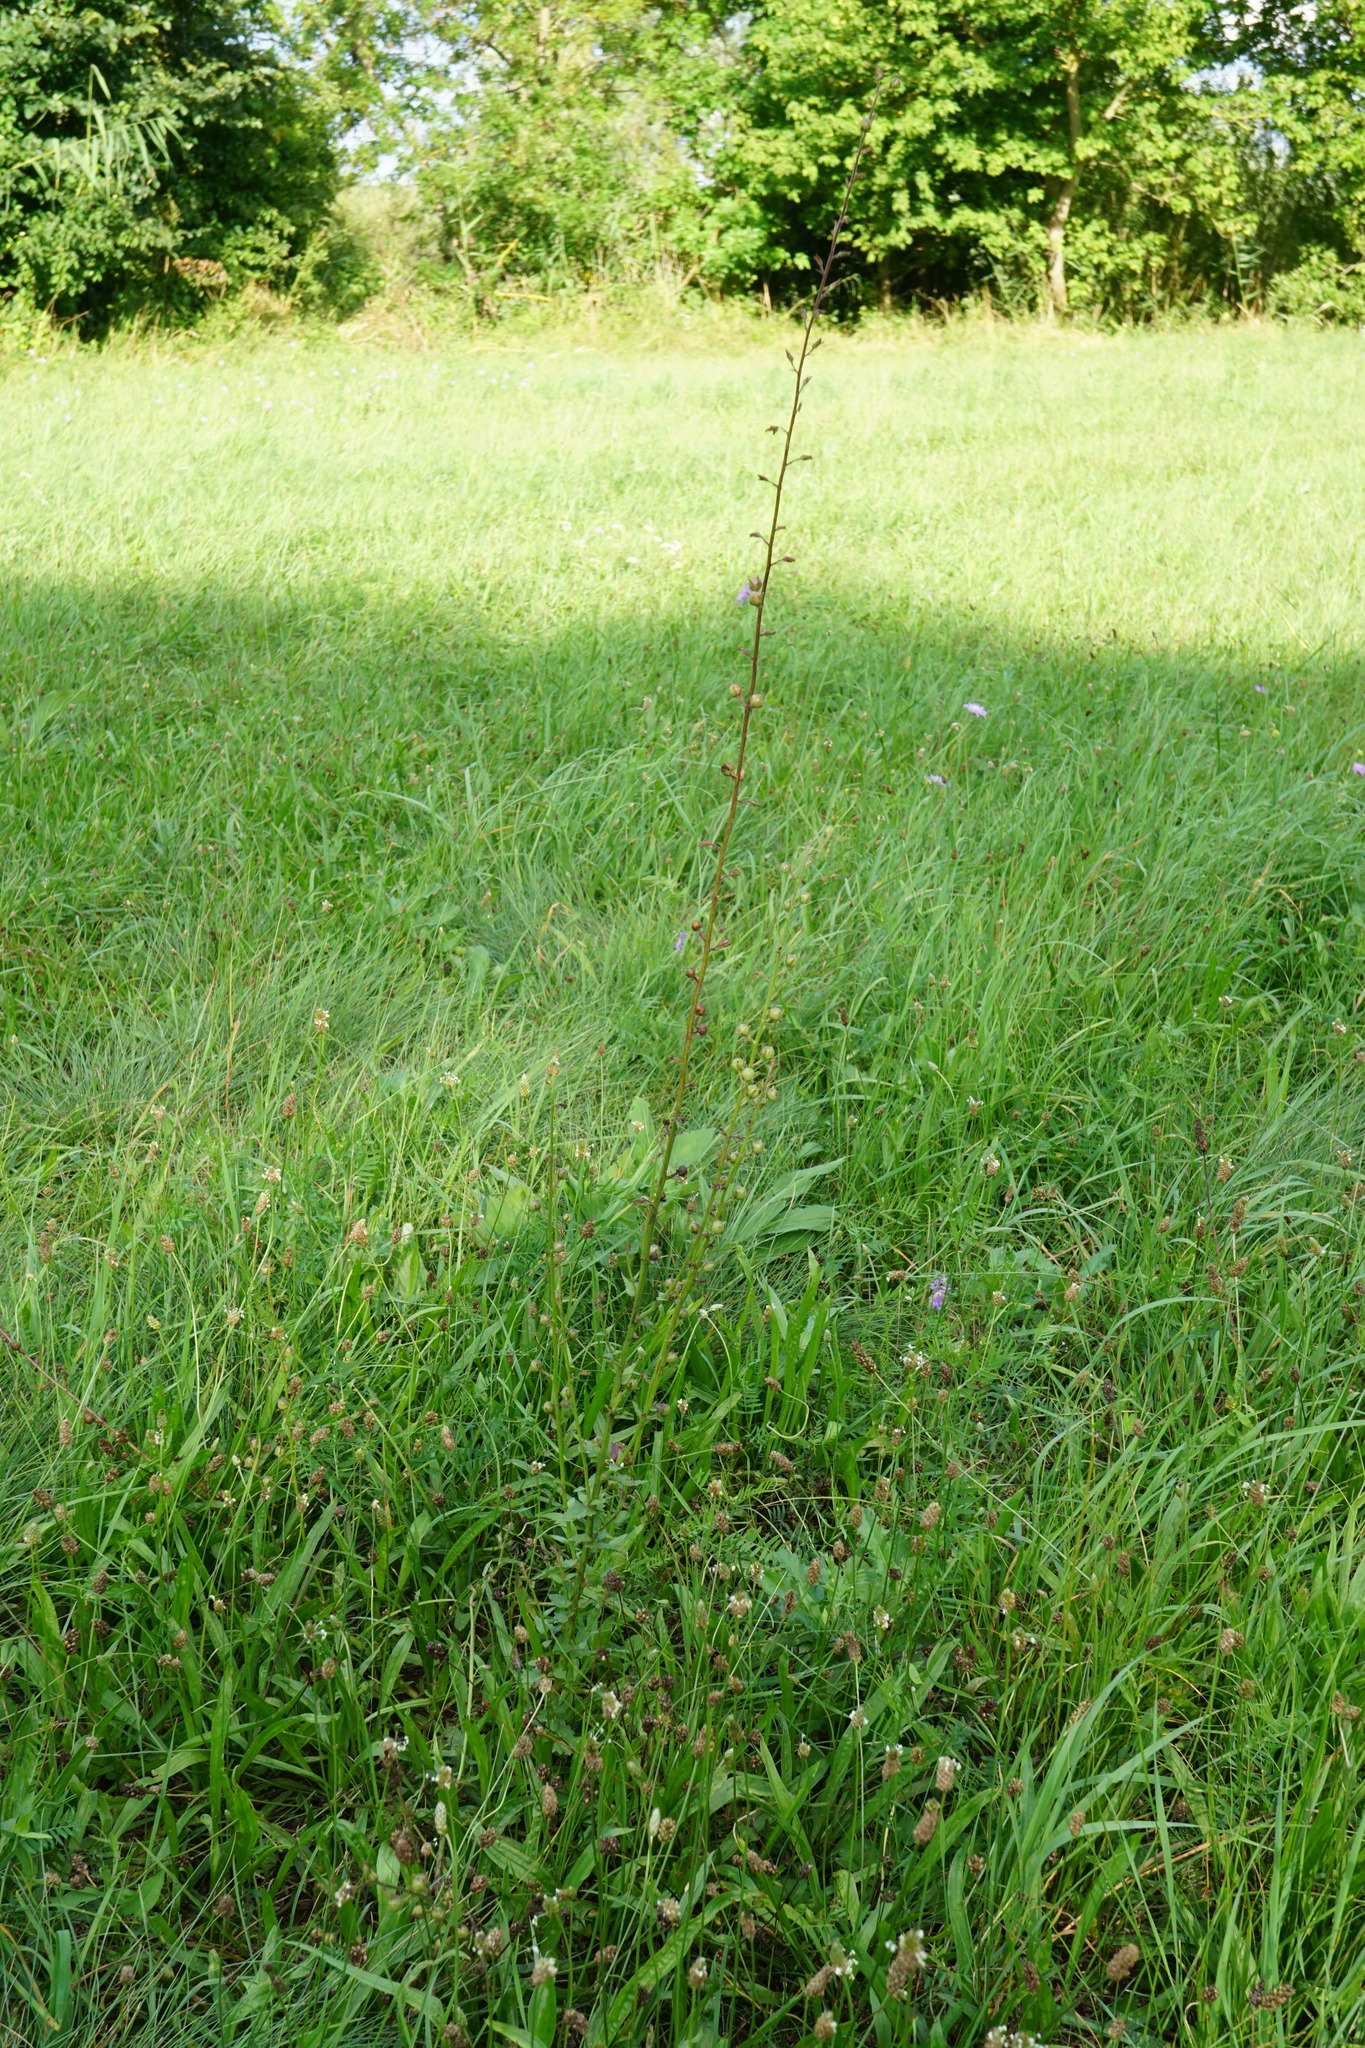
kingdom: Plantae
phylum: Tracheophyta
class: Magnoliopsida
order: Lamiales
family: Scrophulariaceae
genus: Verbascum
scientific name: Verbascum blattaria
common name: Moth mullein
